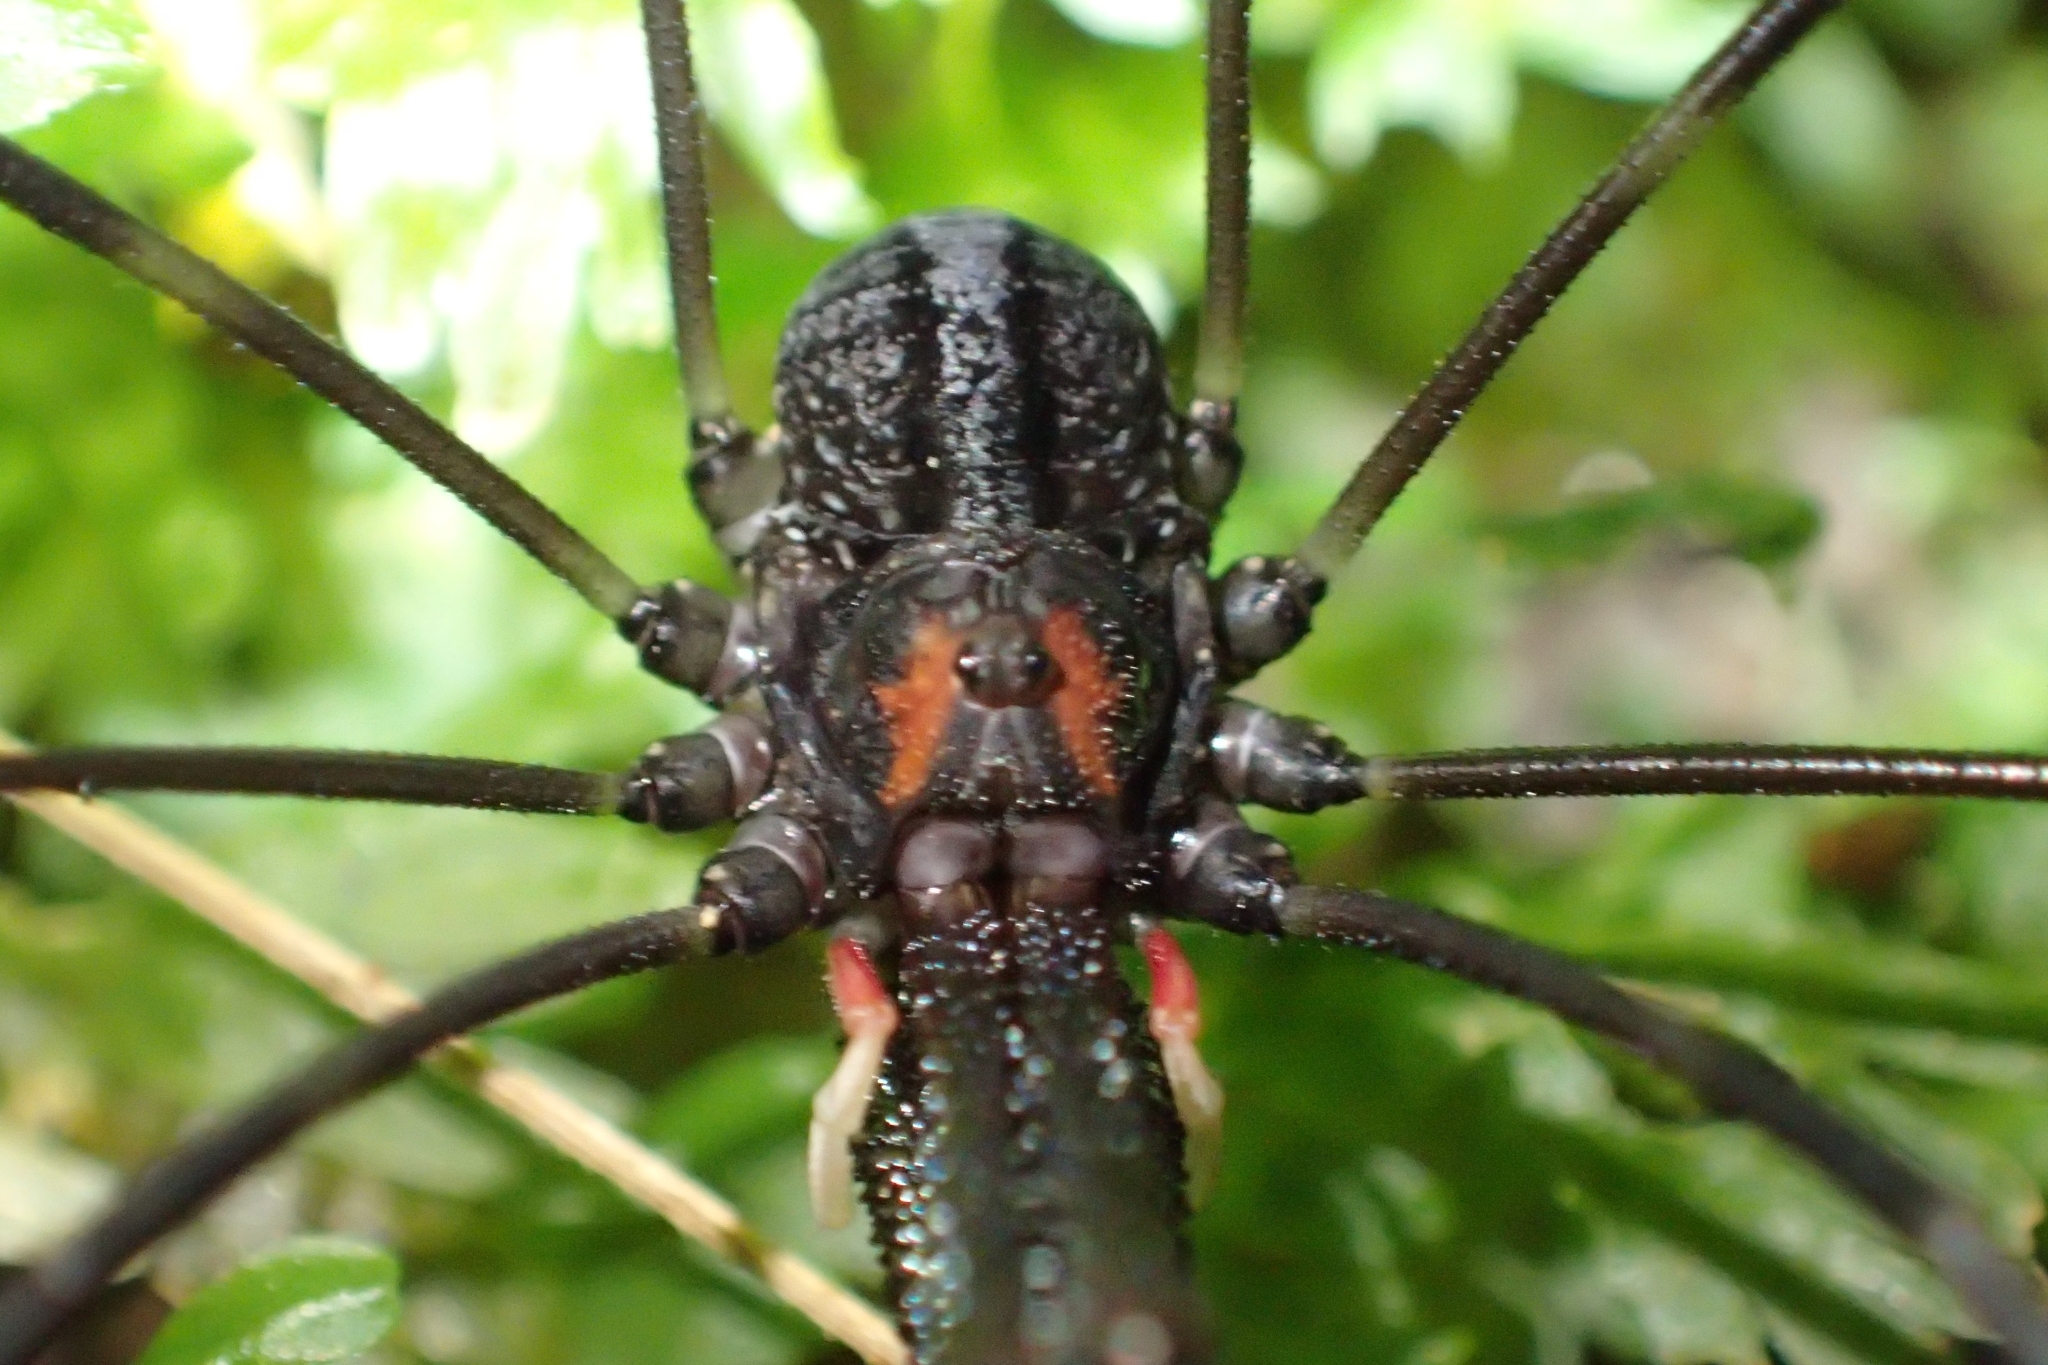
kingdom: Animalia
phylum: Arthropoda
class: Arachnida
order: Opiliones
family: Neopilionidae
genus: Forsteropsalis
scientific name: Forsteropsalis inconstans
